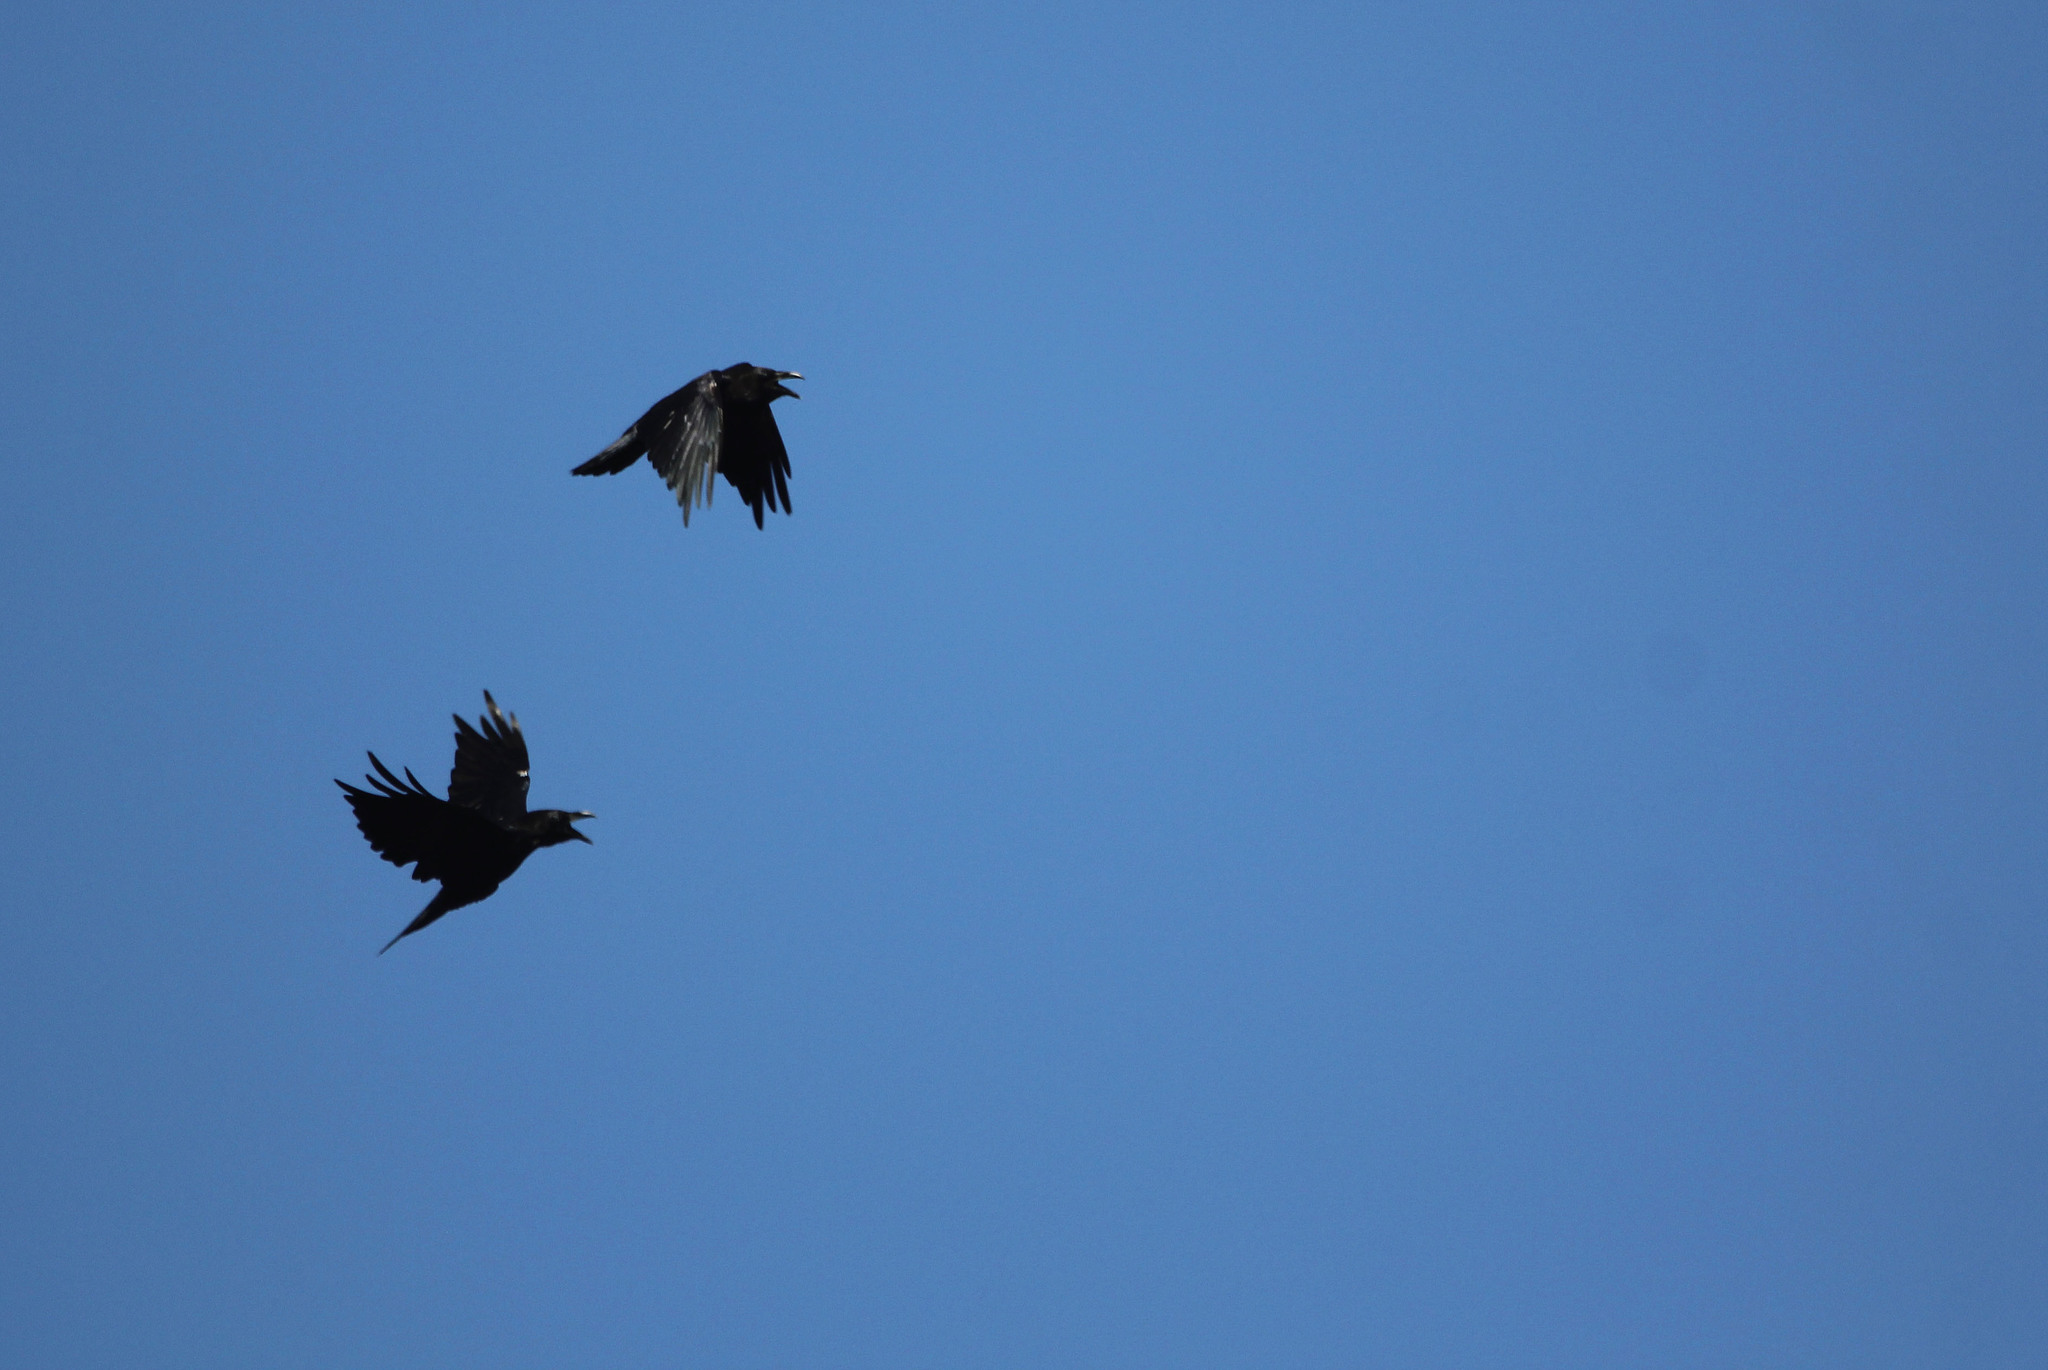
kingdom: Animalia
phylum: Chordata
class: Aves
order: Passeriformes
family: Corvidae
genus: Corvus
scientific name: Corvus corax
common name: Common raven
